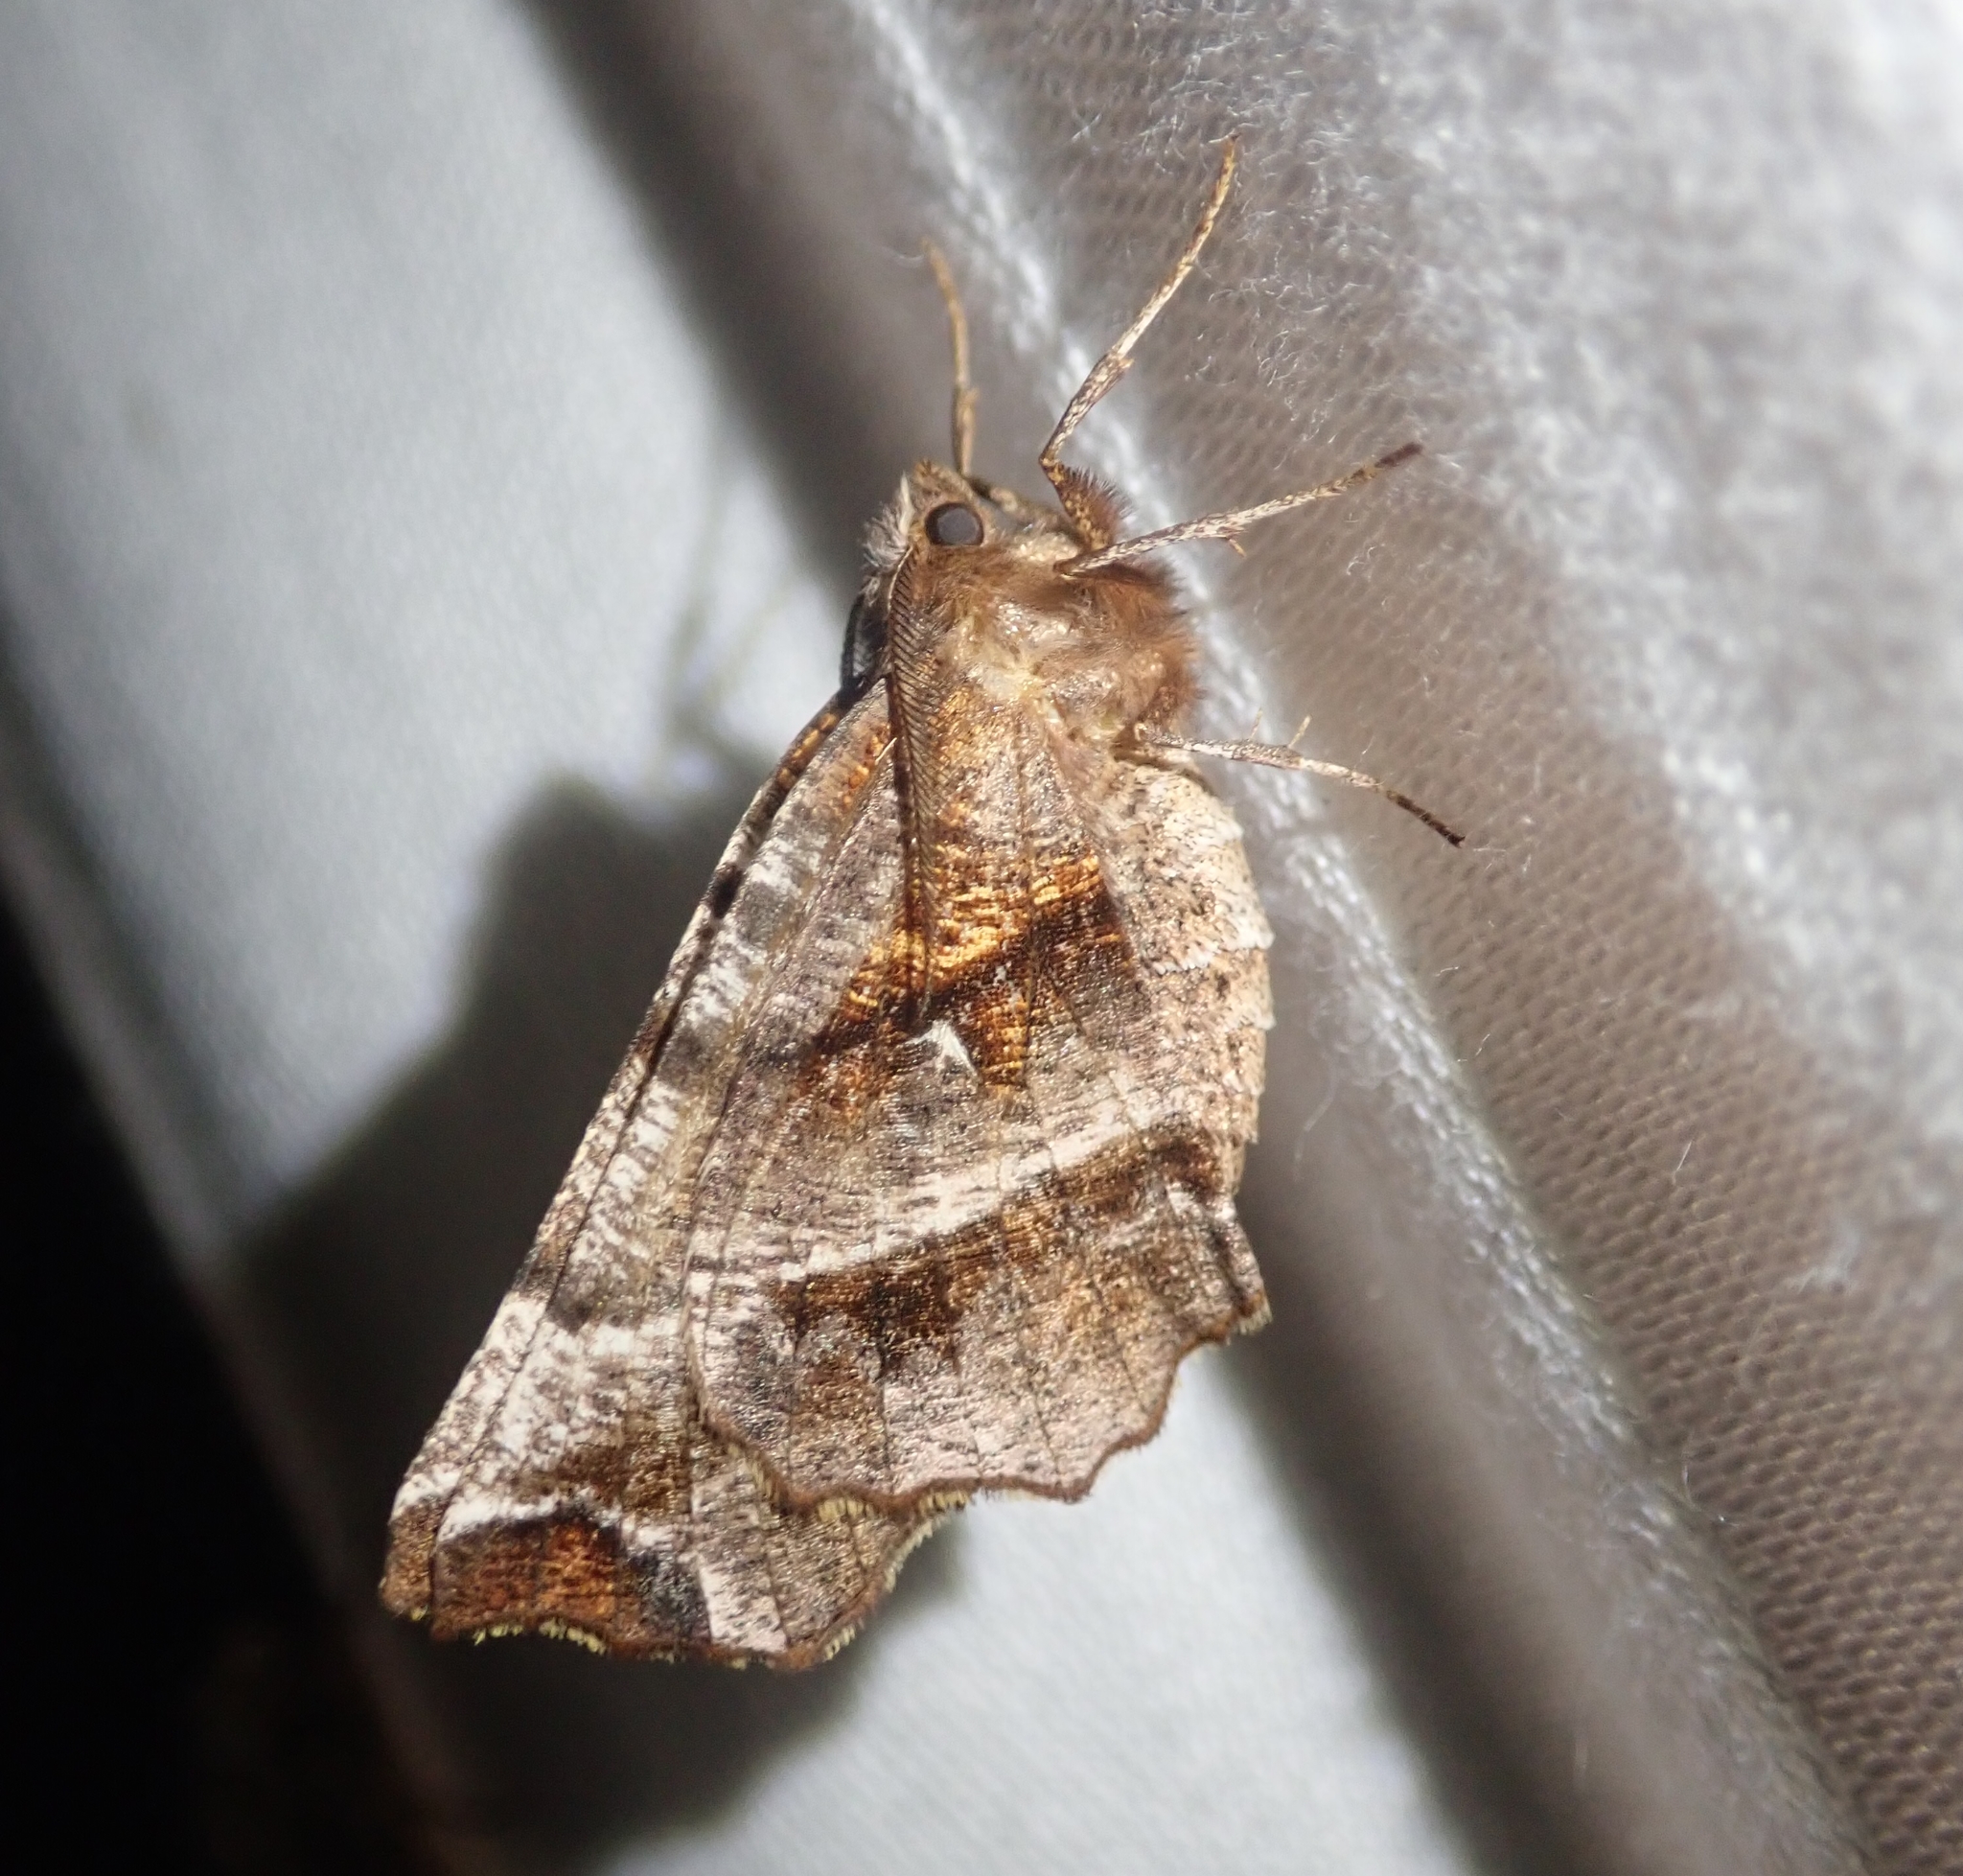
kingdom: Animalia
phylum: Arthropoda
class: Insecta
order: Lepidoptera
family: Geometridae
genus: Selenia
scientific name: Selenia dentaria
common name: Early thorn
